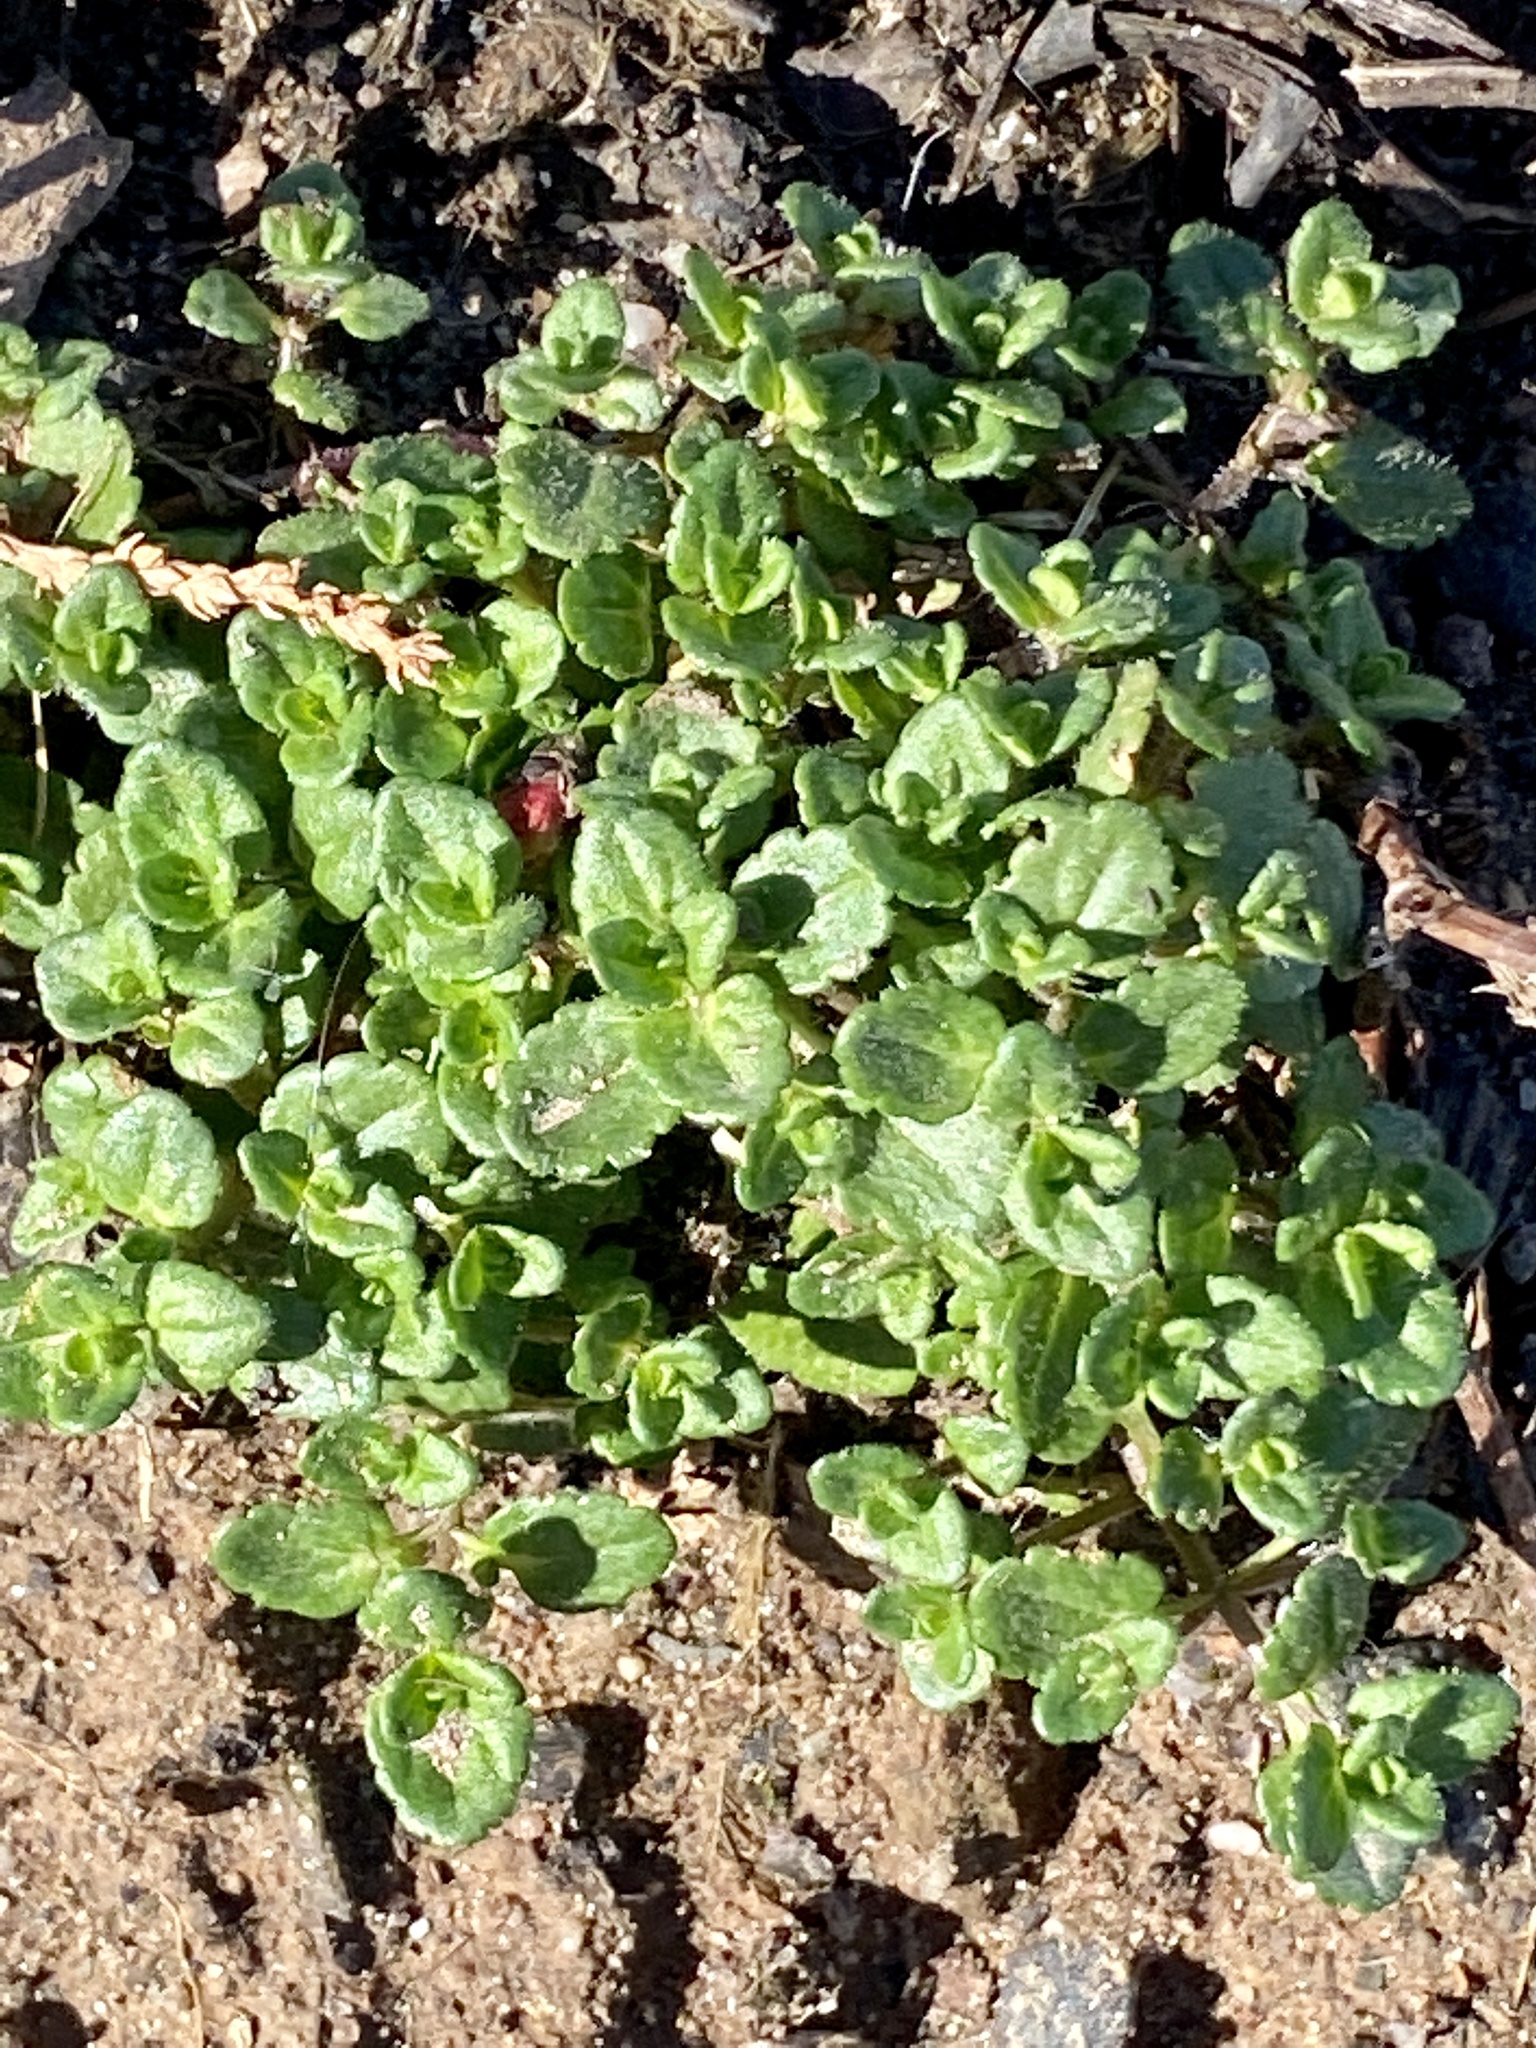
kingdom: Plantae
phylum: Tracheophyta
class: Magnoliopsida
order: Lamiales
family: Plantaginaceae
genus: Veronica
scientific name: Veronica arvensis
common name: Corn speedwell
